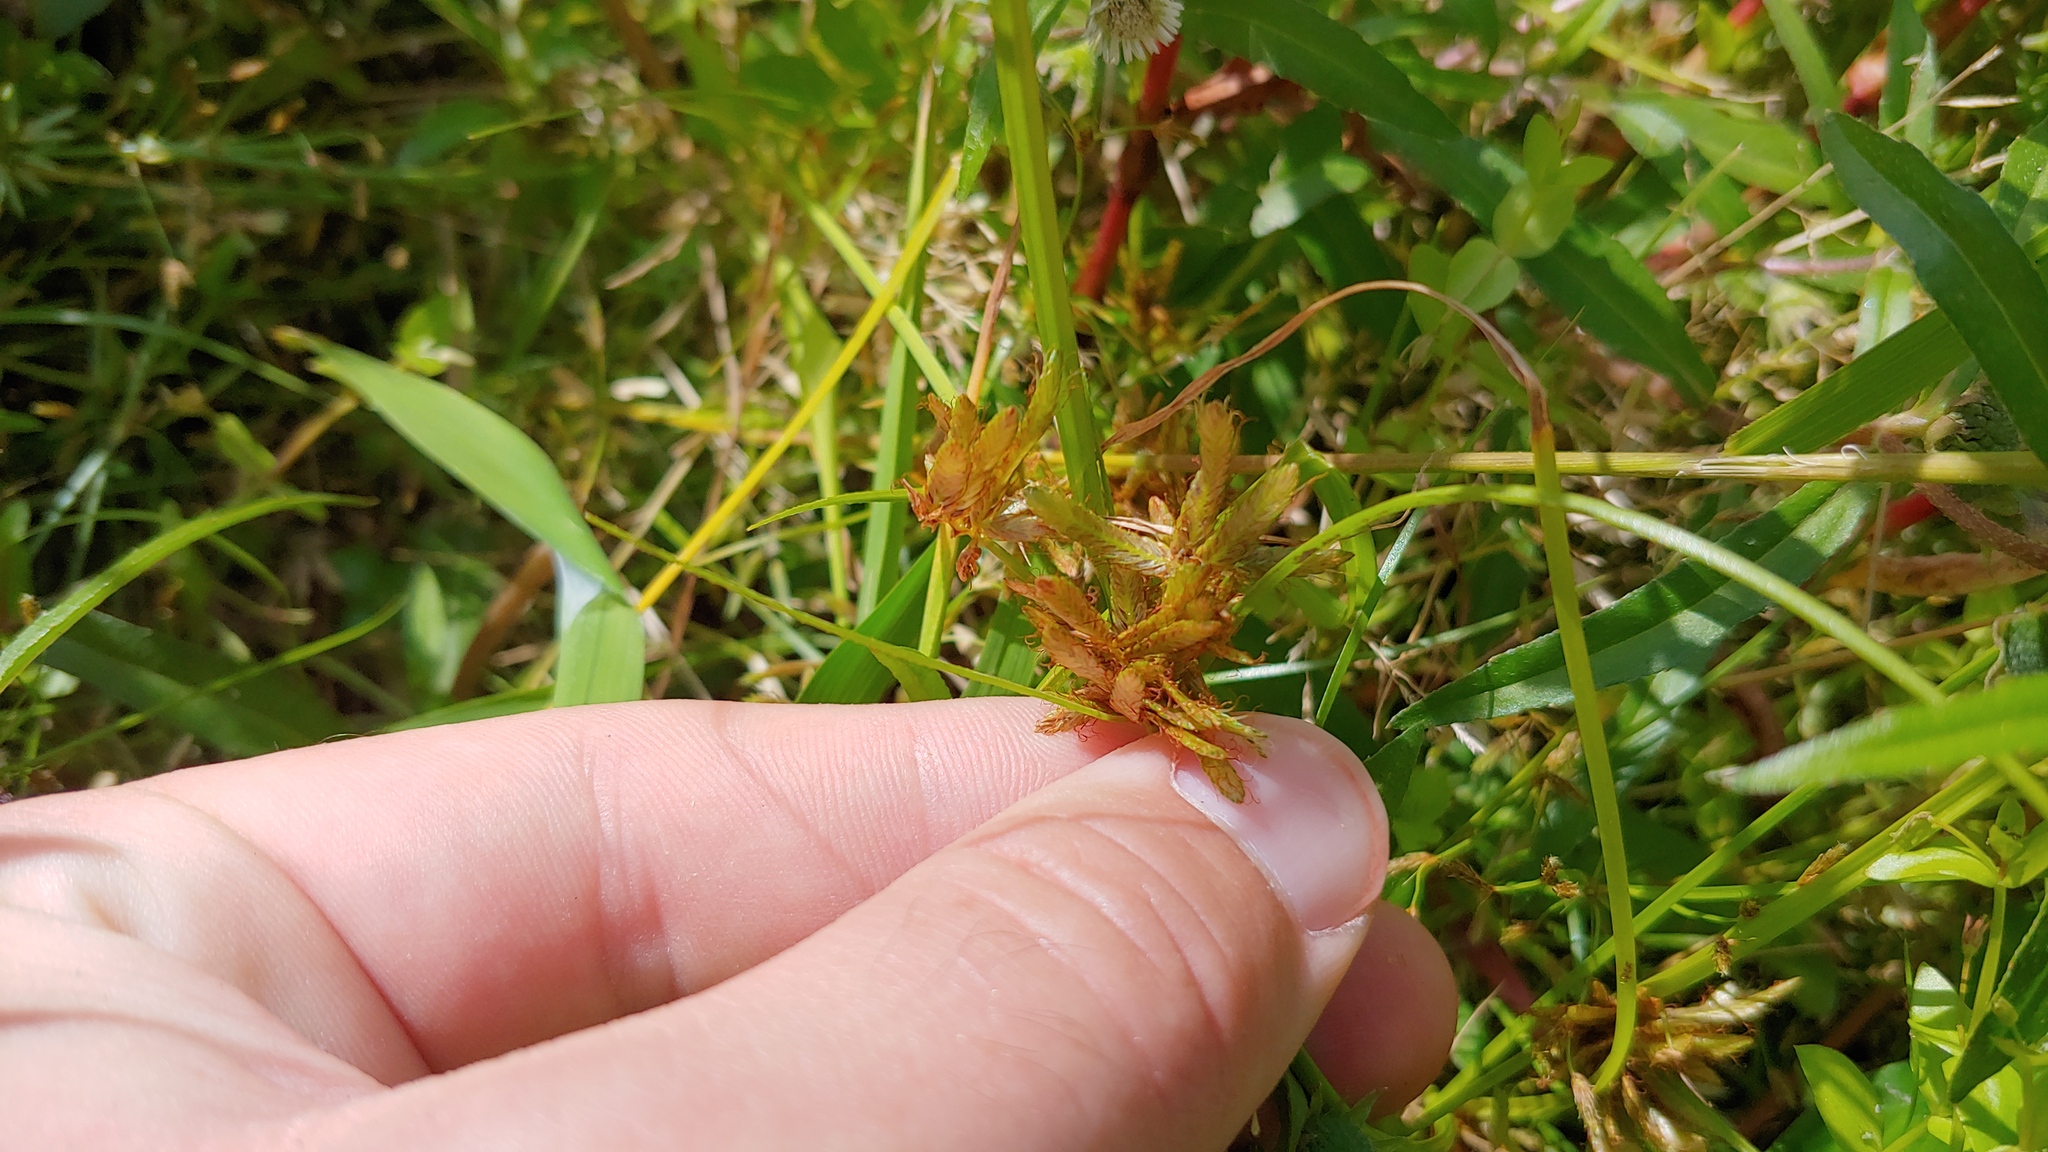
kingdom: Plantae
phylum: Tracheophyta
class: Liliopsida
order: Poales
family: Cyperaceae
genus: Cyperus
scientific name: Cyperus flavescens
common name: Yellow galingale
